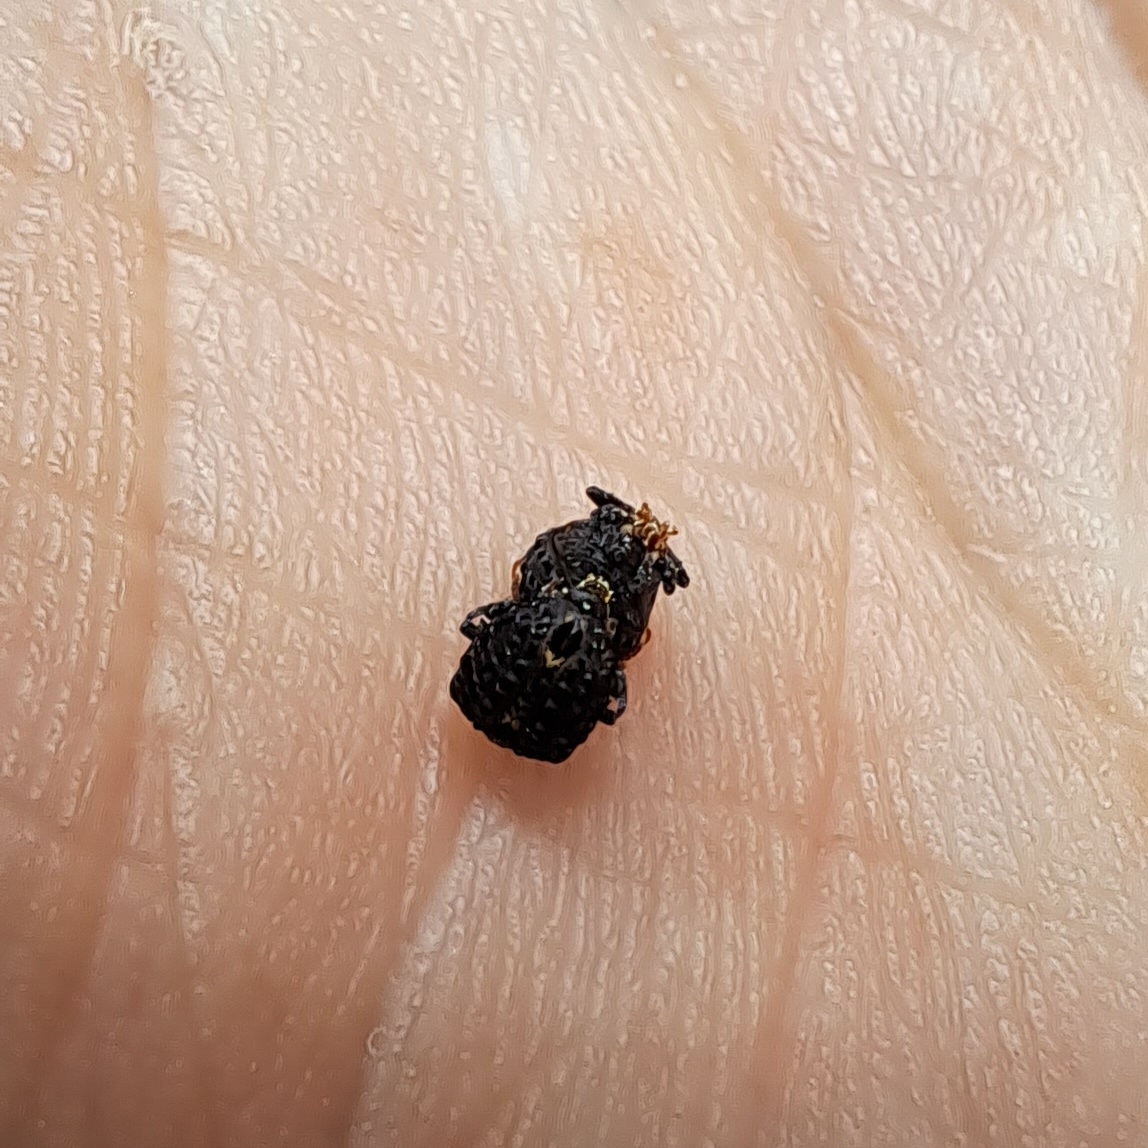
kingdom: Animalia
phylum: Arthropoda
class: Insecta
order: Coleoptera
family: Curculionidae
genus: Cionus
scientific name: Cionus tuberculosus
